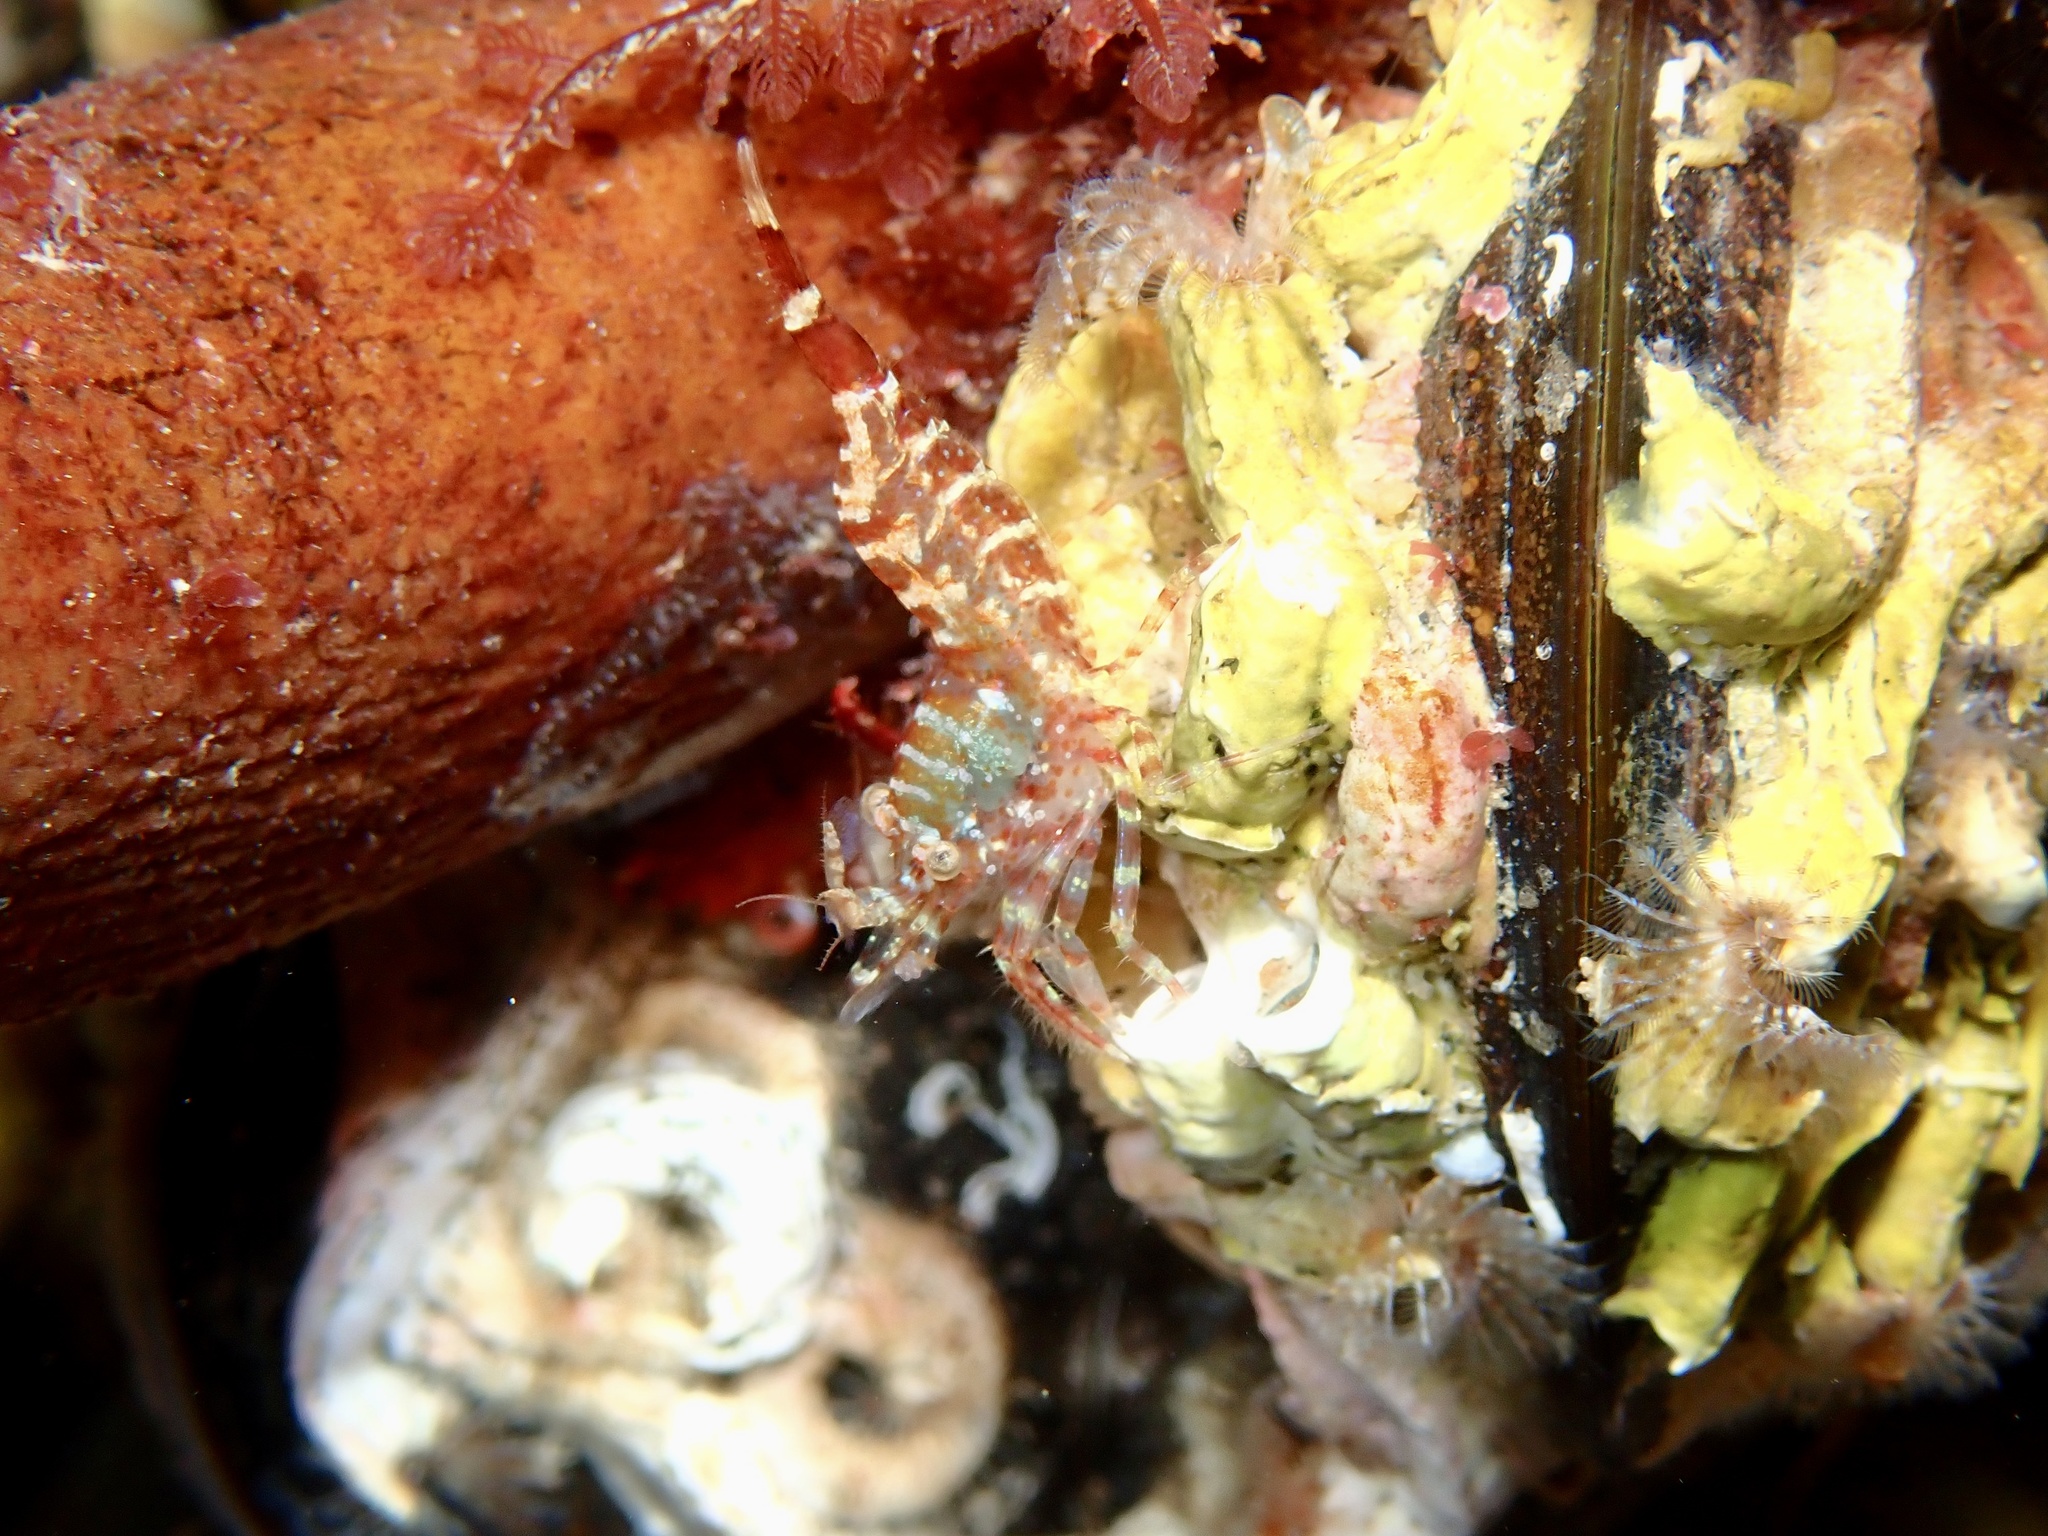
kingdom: Animalia
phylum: Arthropoda
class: Malacostraca
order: Decapoda
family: Thoridae
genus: Lebbeus
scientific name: Lebbeus microceros
